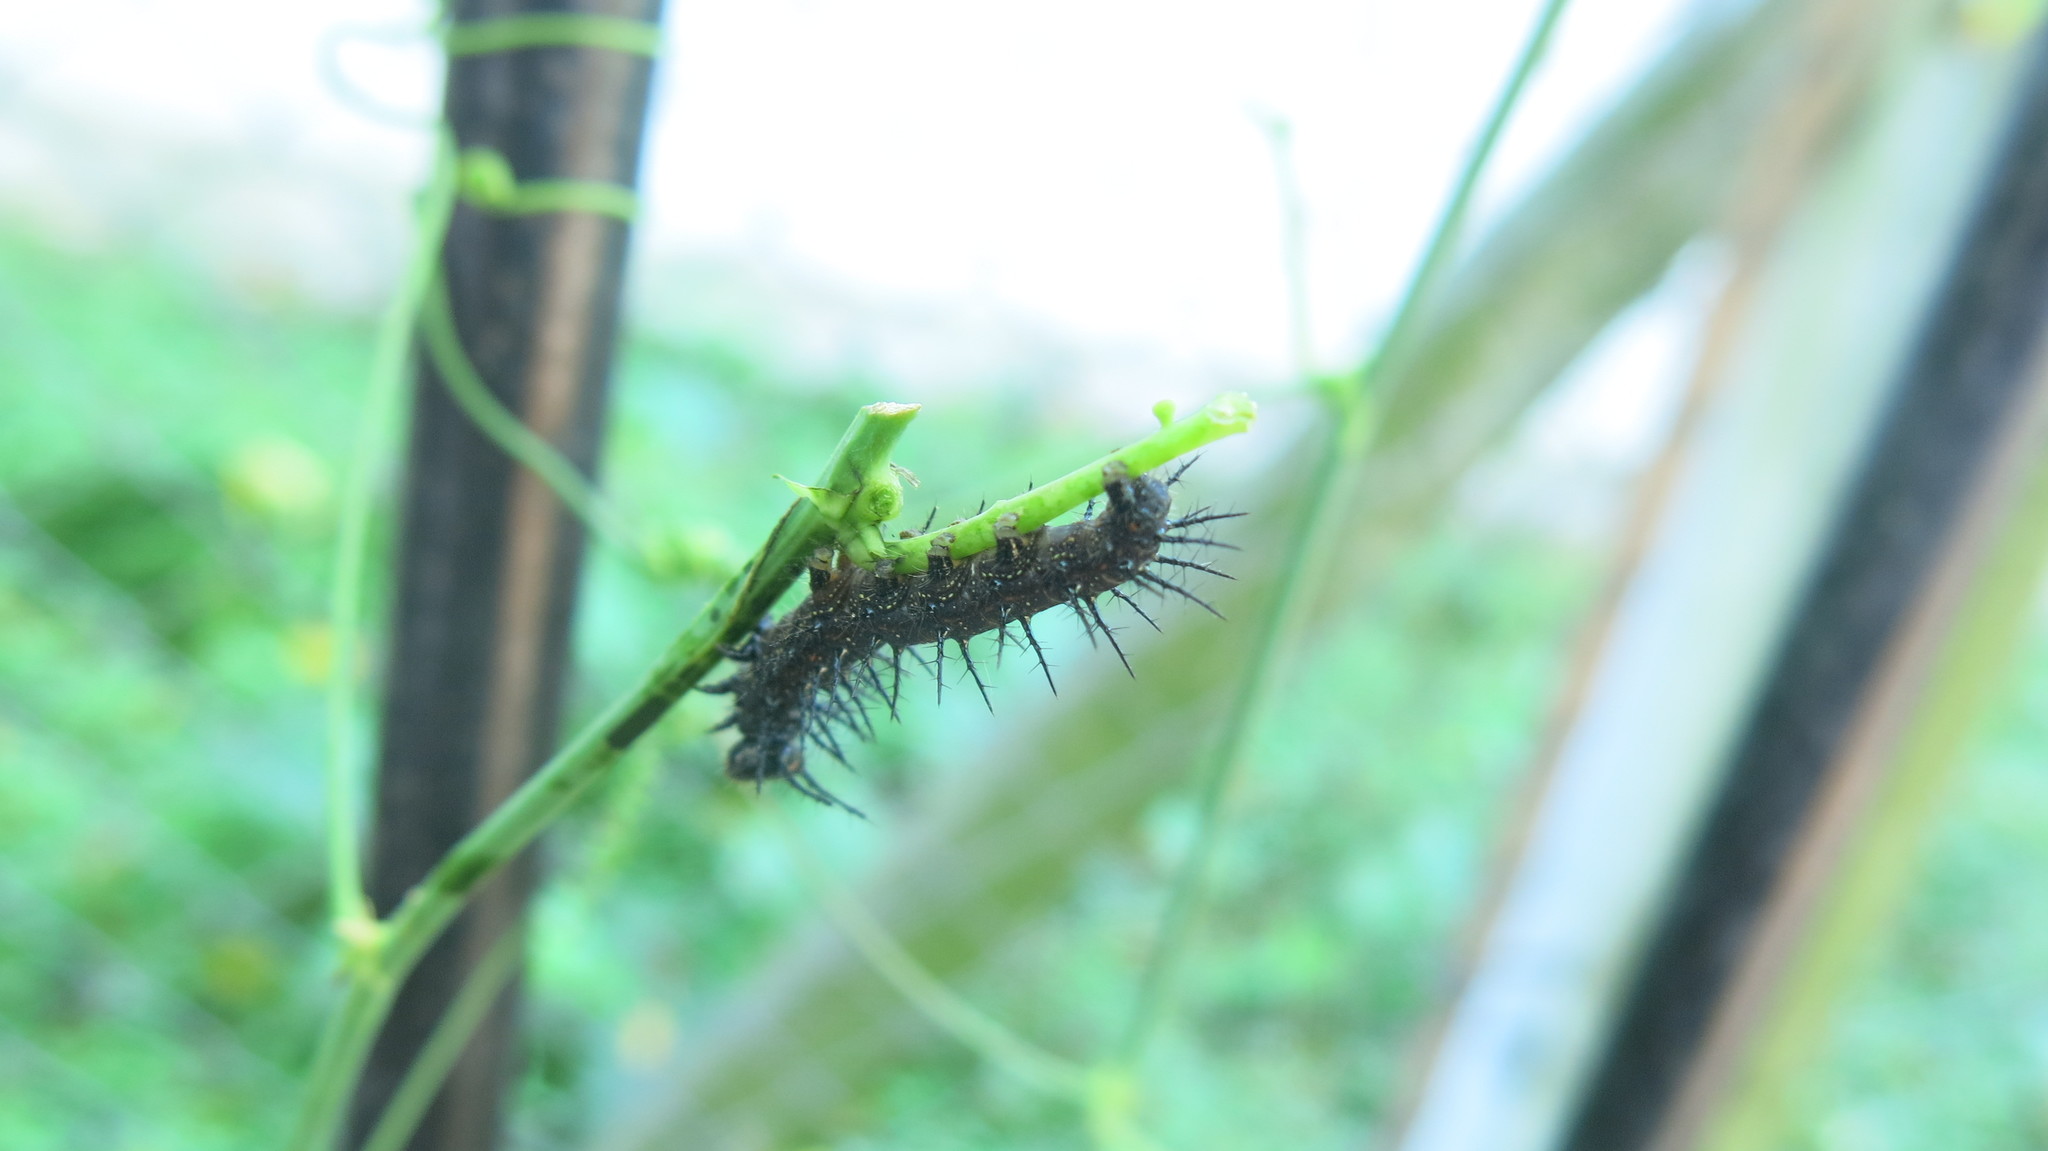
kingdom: Animalia
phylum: Arthropoda
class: Insecta
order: Lepidoptera
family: Nymphalidae
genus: Dione
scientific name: Dione vanillae
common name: Gulf fritillary
